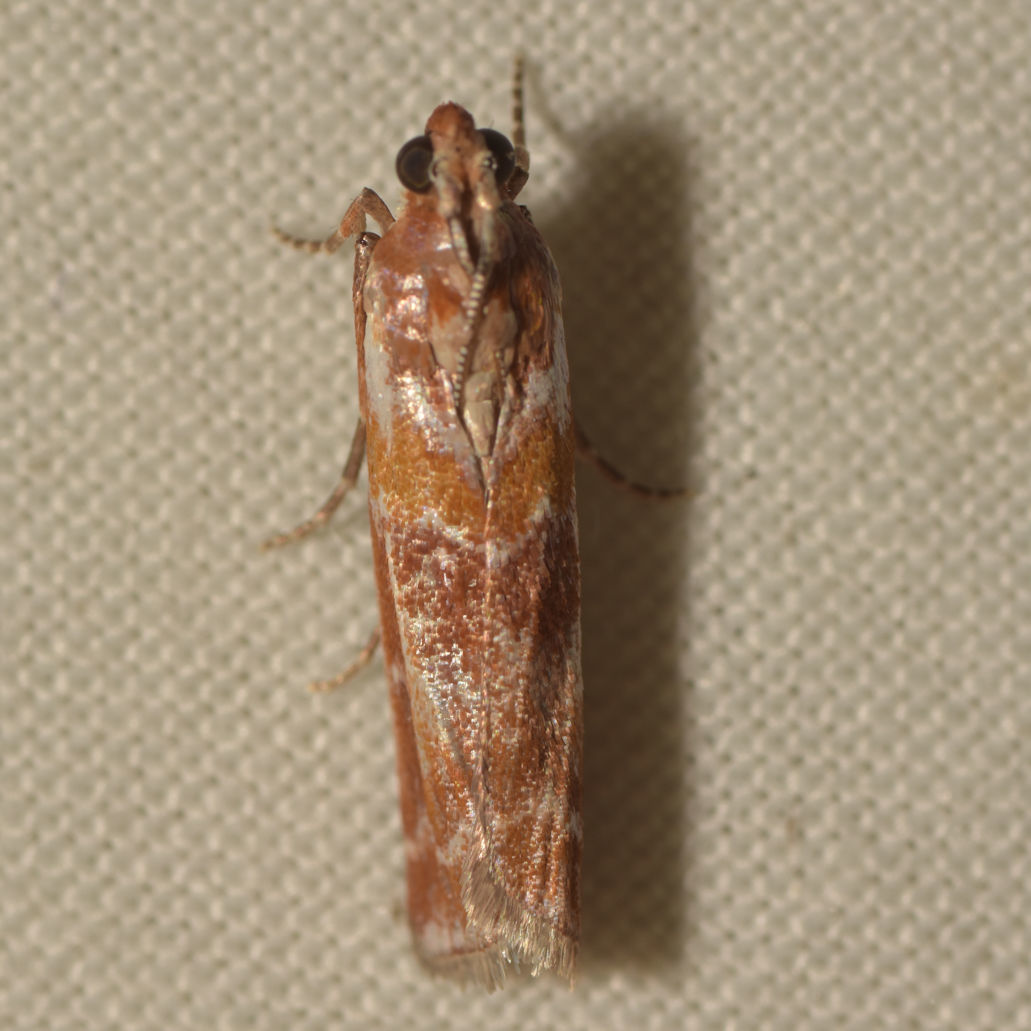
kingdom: Animalia
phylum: Arthropoda
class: Insecta
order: Lepidoptera
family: Pyralidae
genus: Dioryctria
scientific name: Dioryctria disclusa
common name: Rusty pine cone moth
